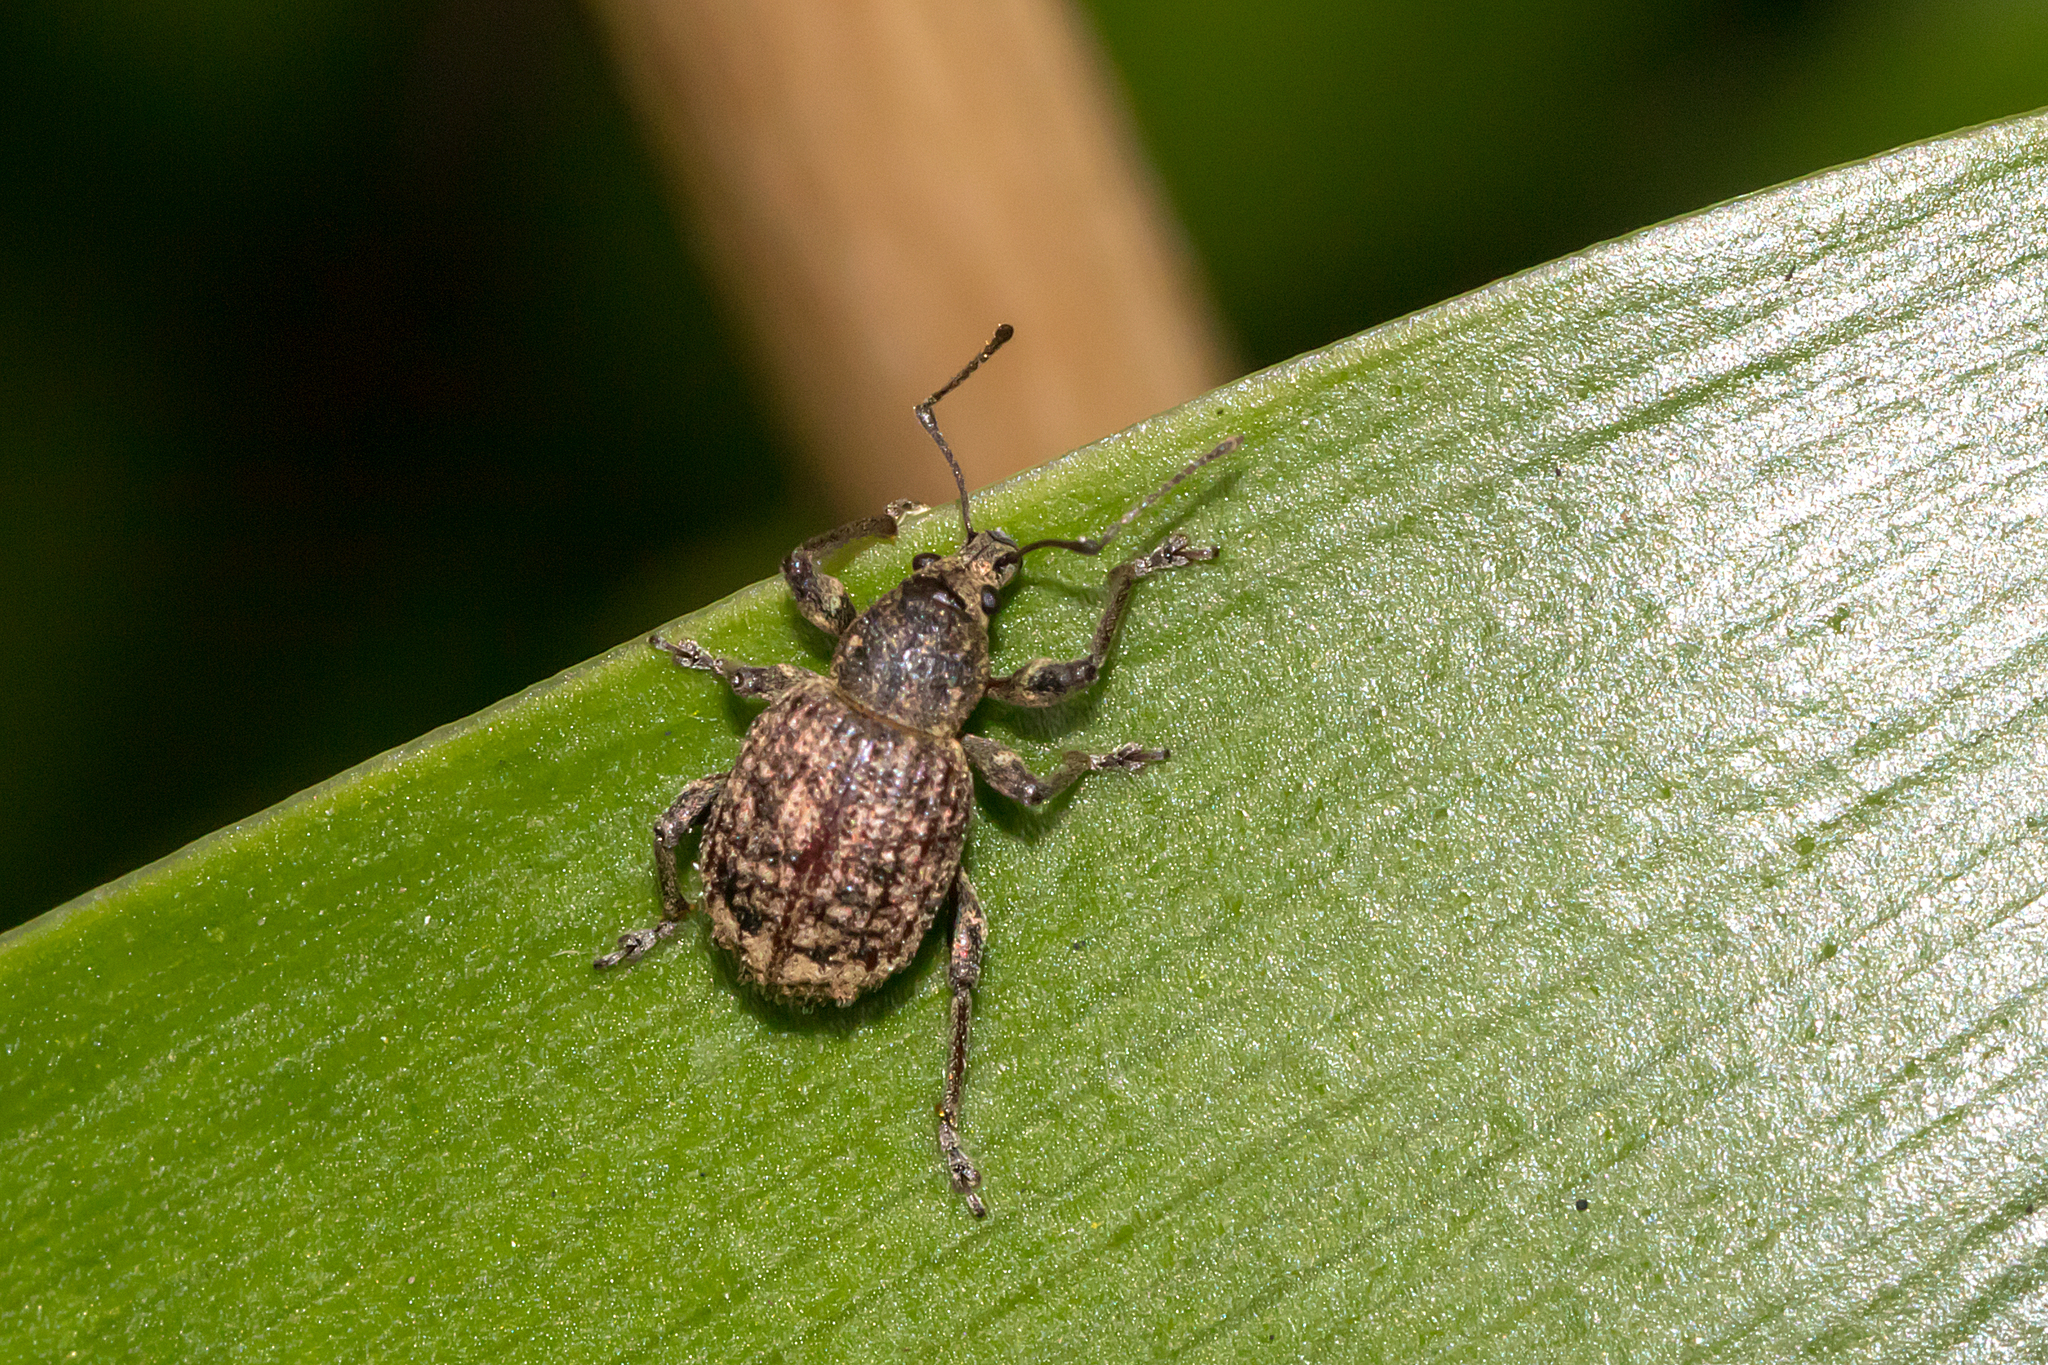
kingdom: Animalia
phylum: Arthropoda
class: Insecta
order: Coleoptera
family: Curculionidae
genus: Phlyctinus
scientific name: Phlyctinus callosus
